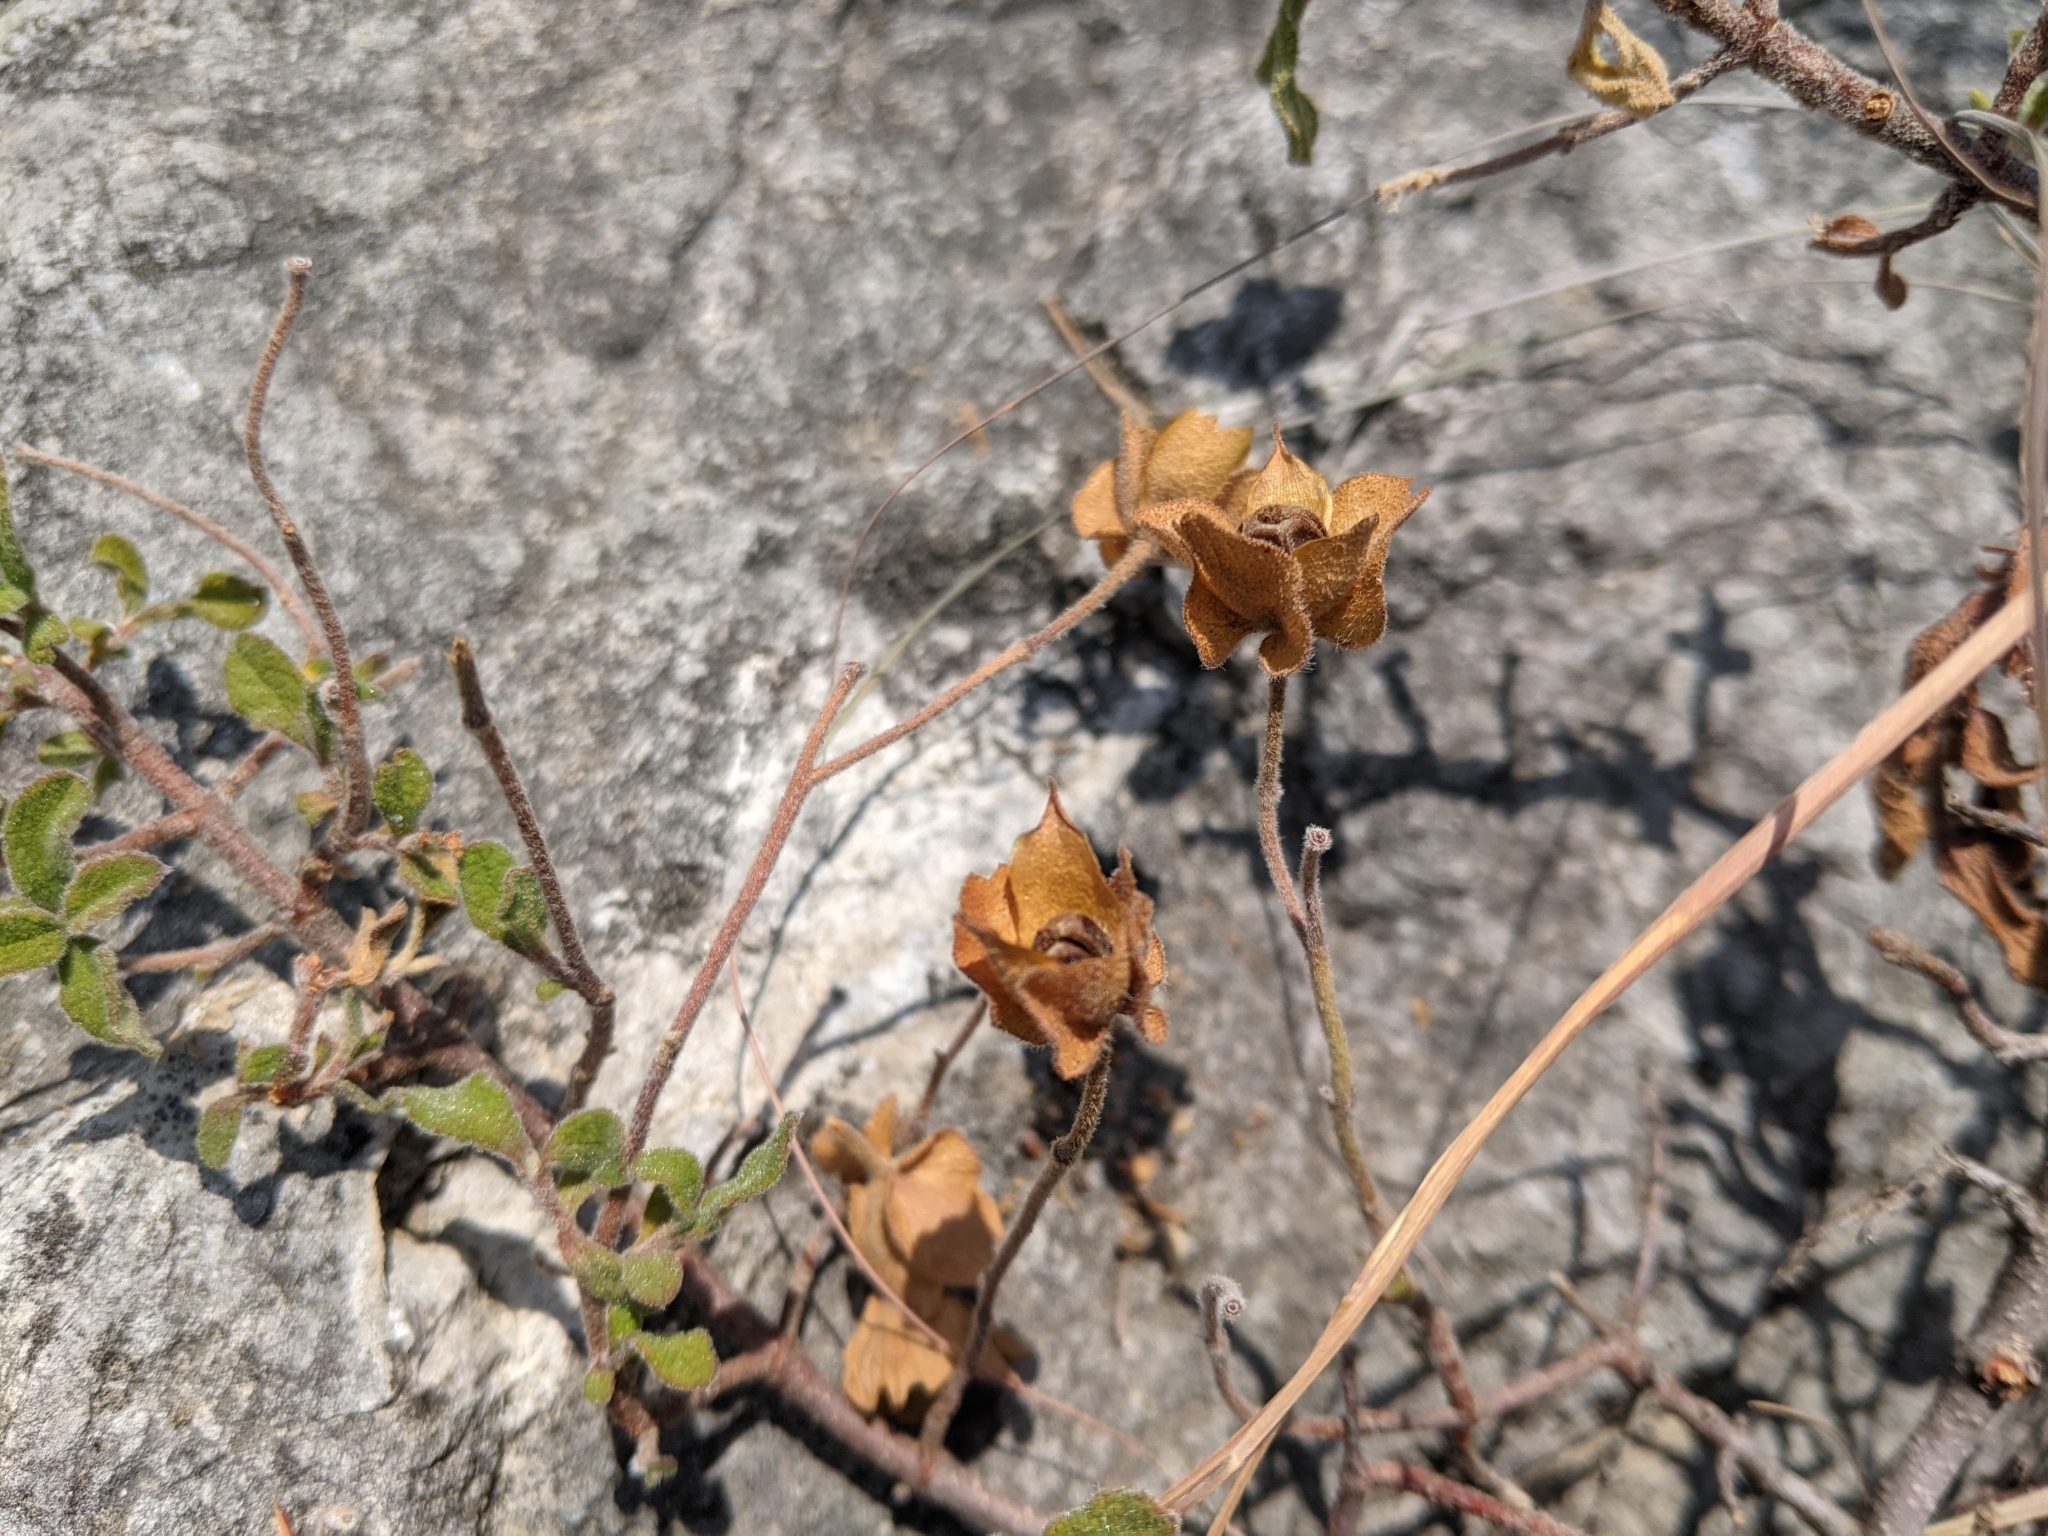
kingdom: Plantae
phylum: Tracheophyta
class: Magnoliopsida
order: Malvales
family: Cistaceae
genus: Cistus
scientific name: Cistus salviifolius
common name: Salvia cistus
